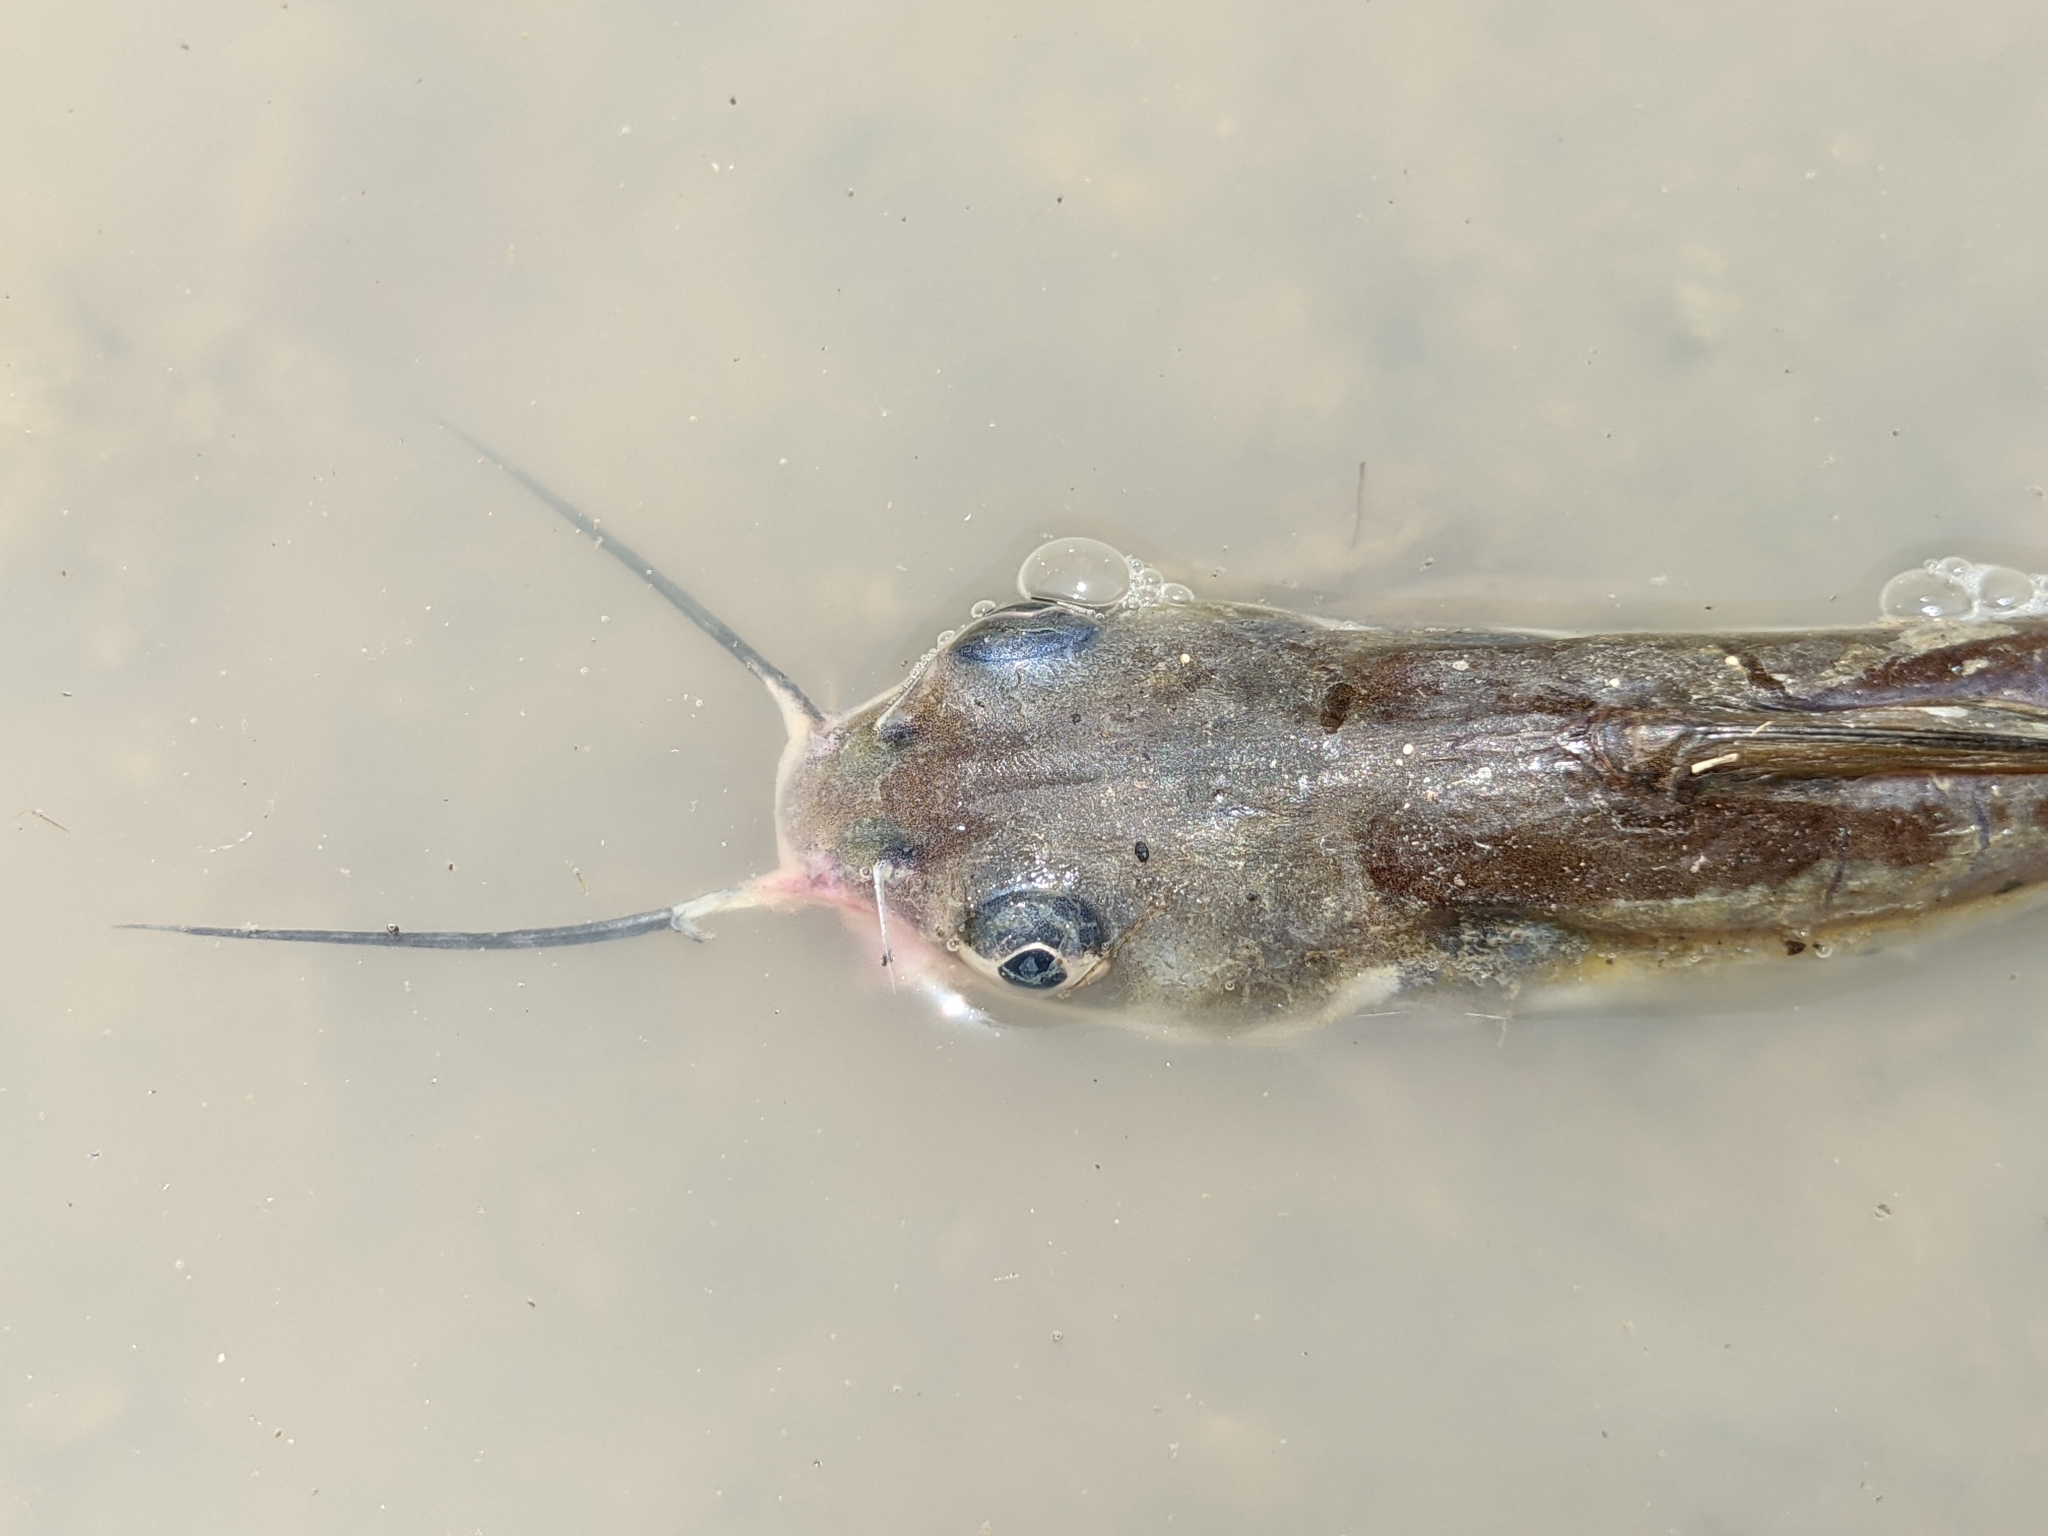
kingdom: Animalia
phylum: Chordata
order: Siluriformes
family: Ictaluridae
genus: Ictalurus
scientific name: Ictalurus punctatus
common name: Channel catfish
